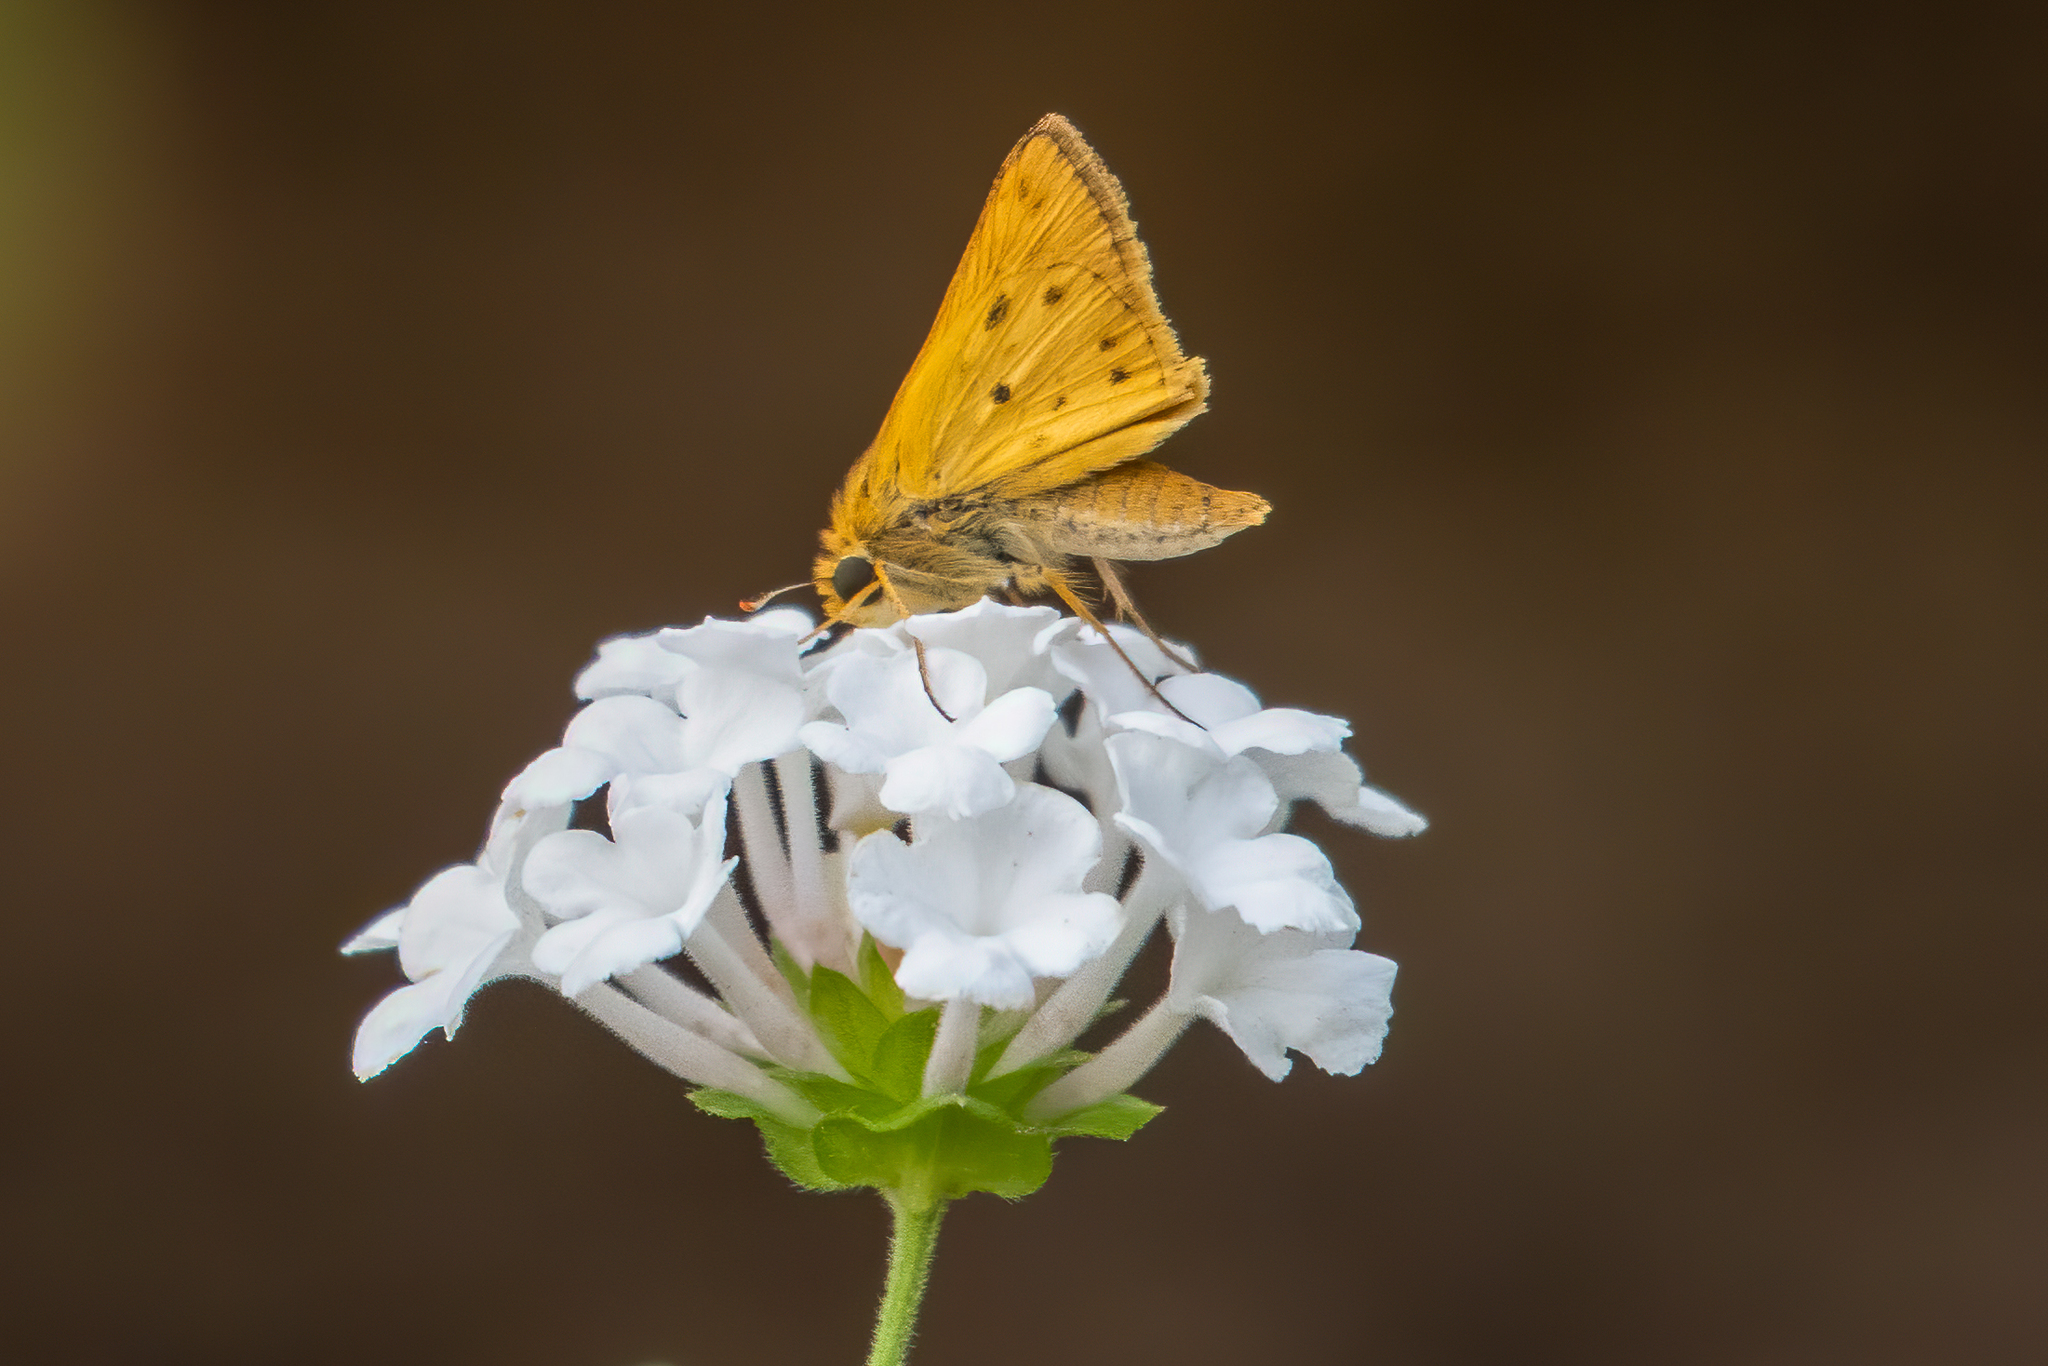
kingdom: Animalia
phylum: Arthropoda
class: Insecta
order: Lepidoptera
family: Hesperiidae
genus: Hylephila
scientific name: Hylephila phyleus
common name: Fiery skipper
